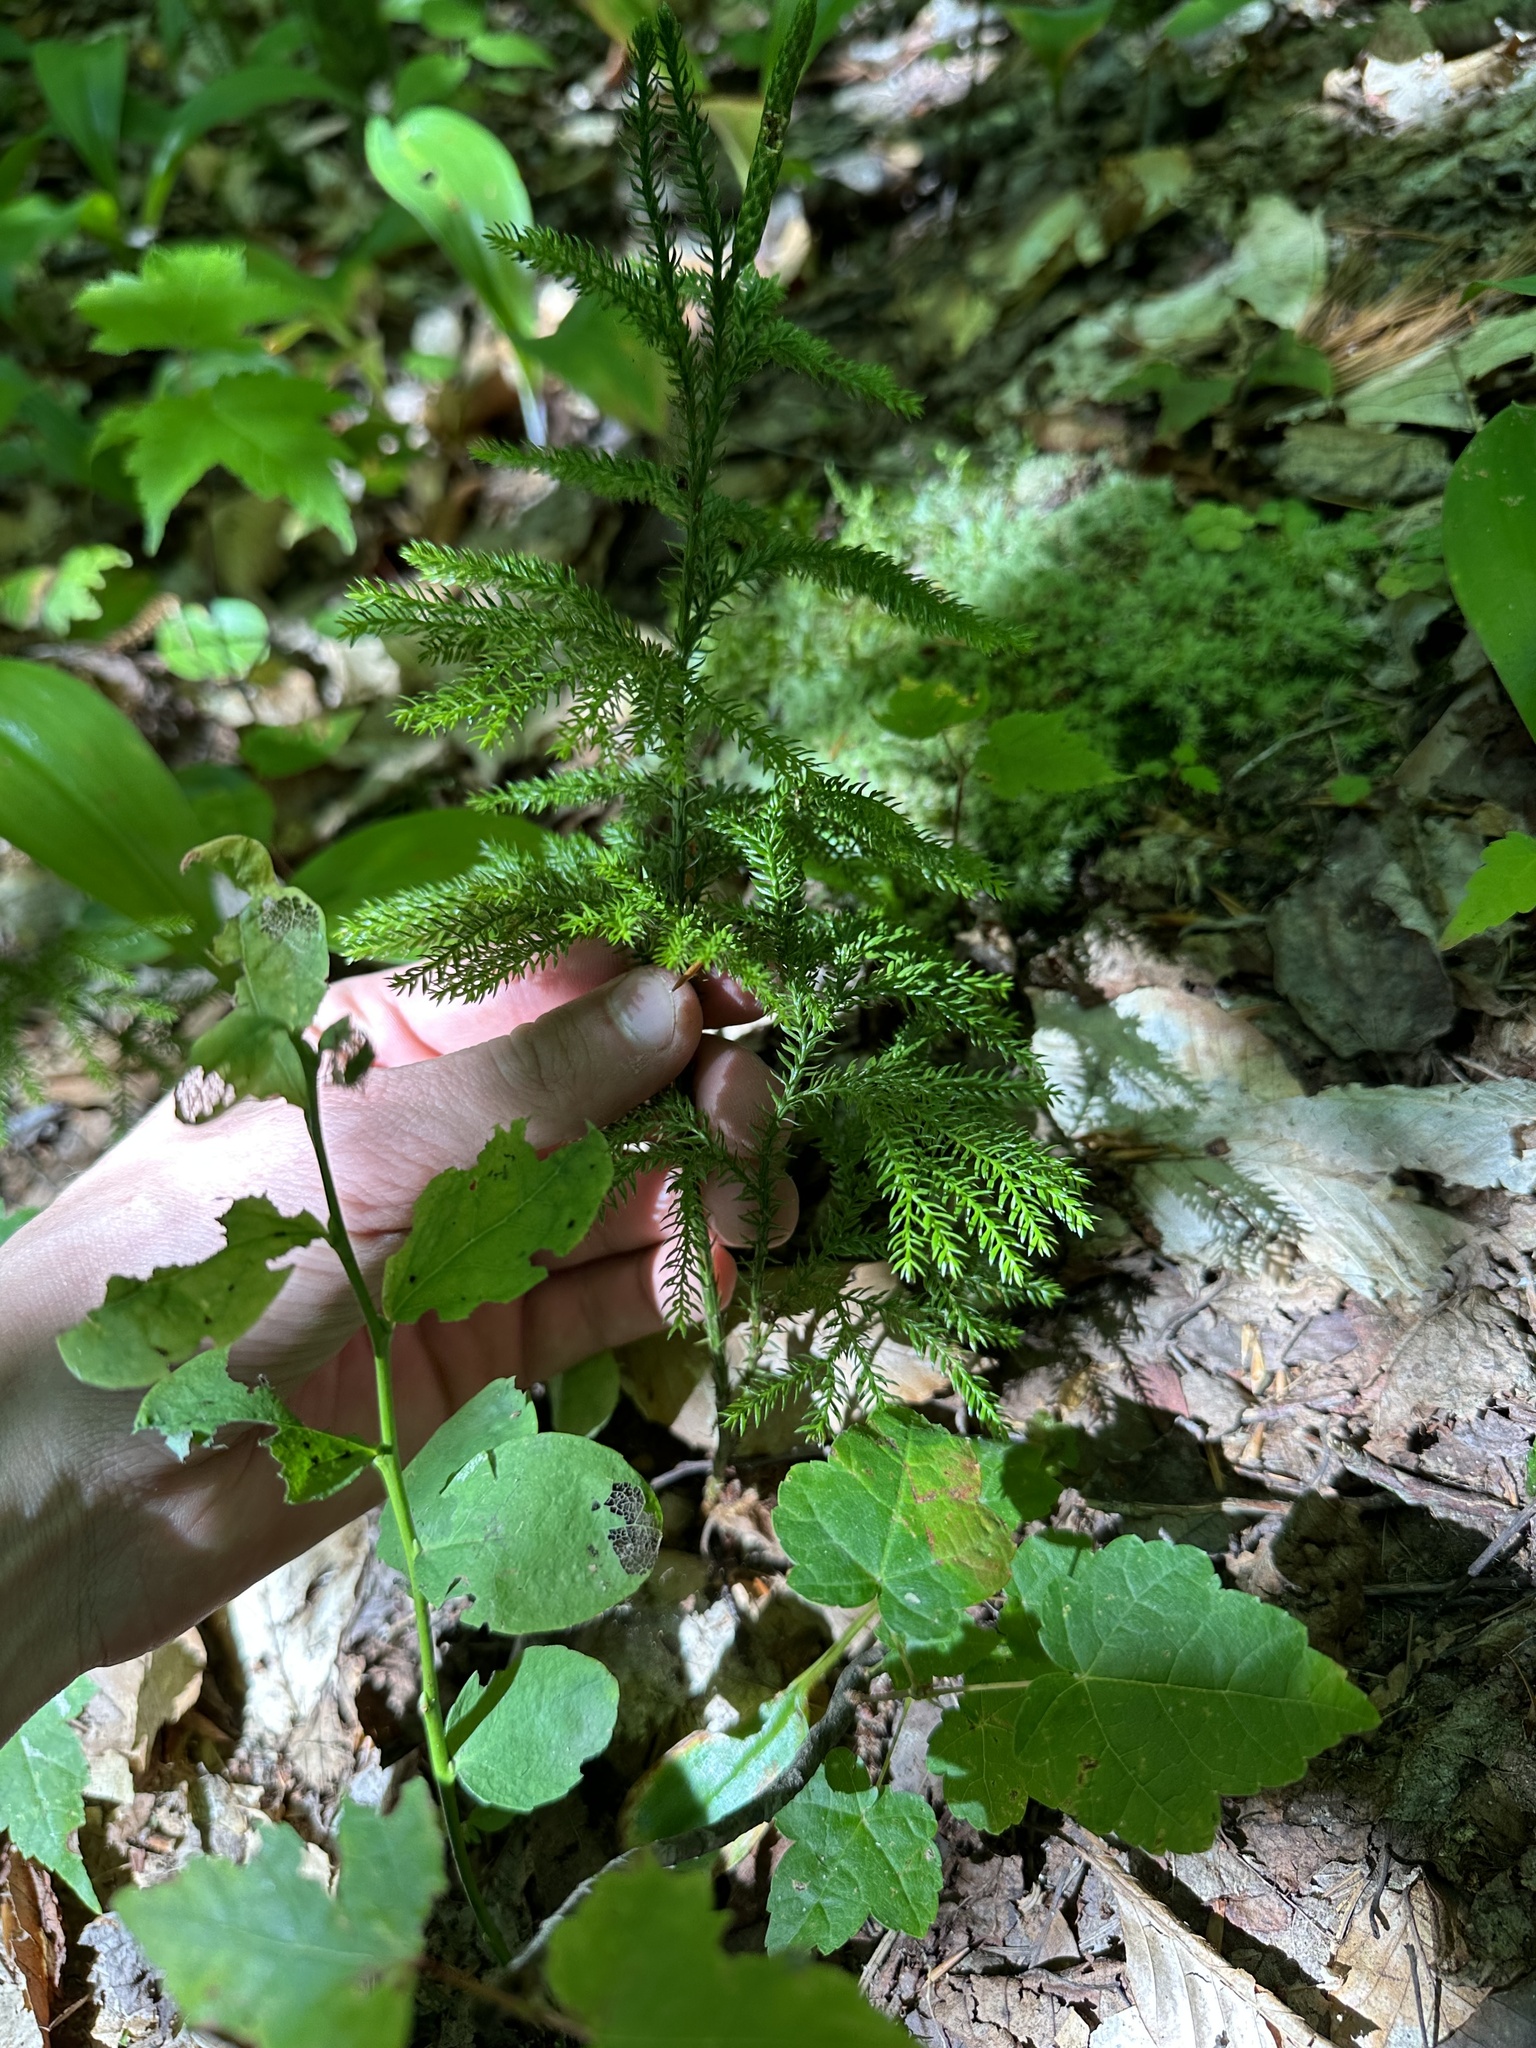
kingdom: Plantae
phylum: Tracheophyta
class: Lycopodiopsida
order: Lycopodiales
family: Lycopodiaceae
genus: Dendrolycopodium
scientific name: Dendrolycopodium dendroideum
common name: Northern tree-clubmoss
